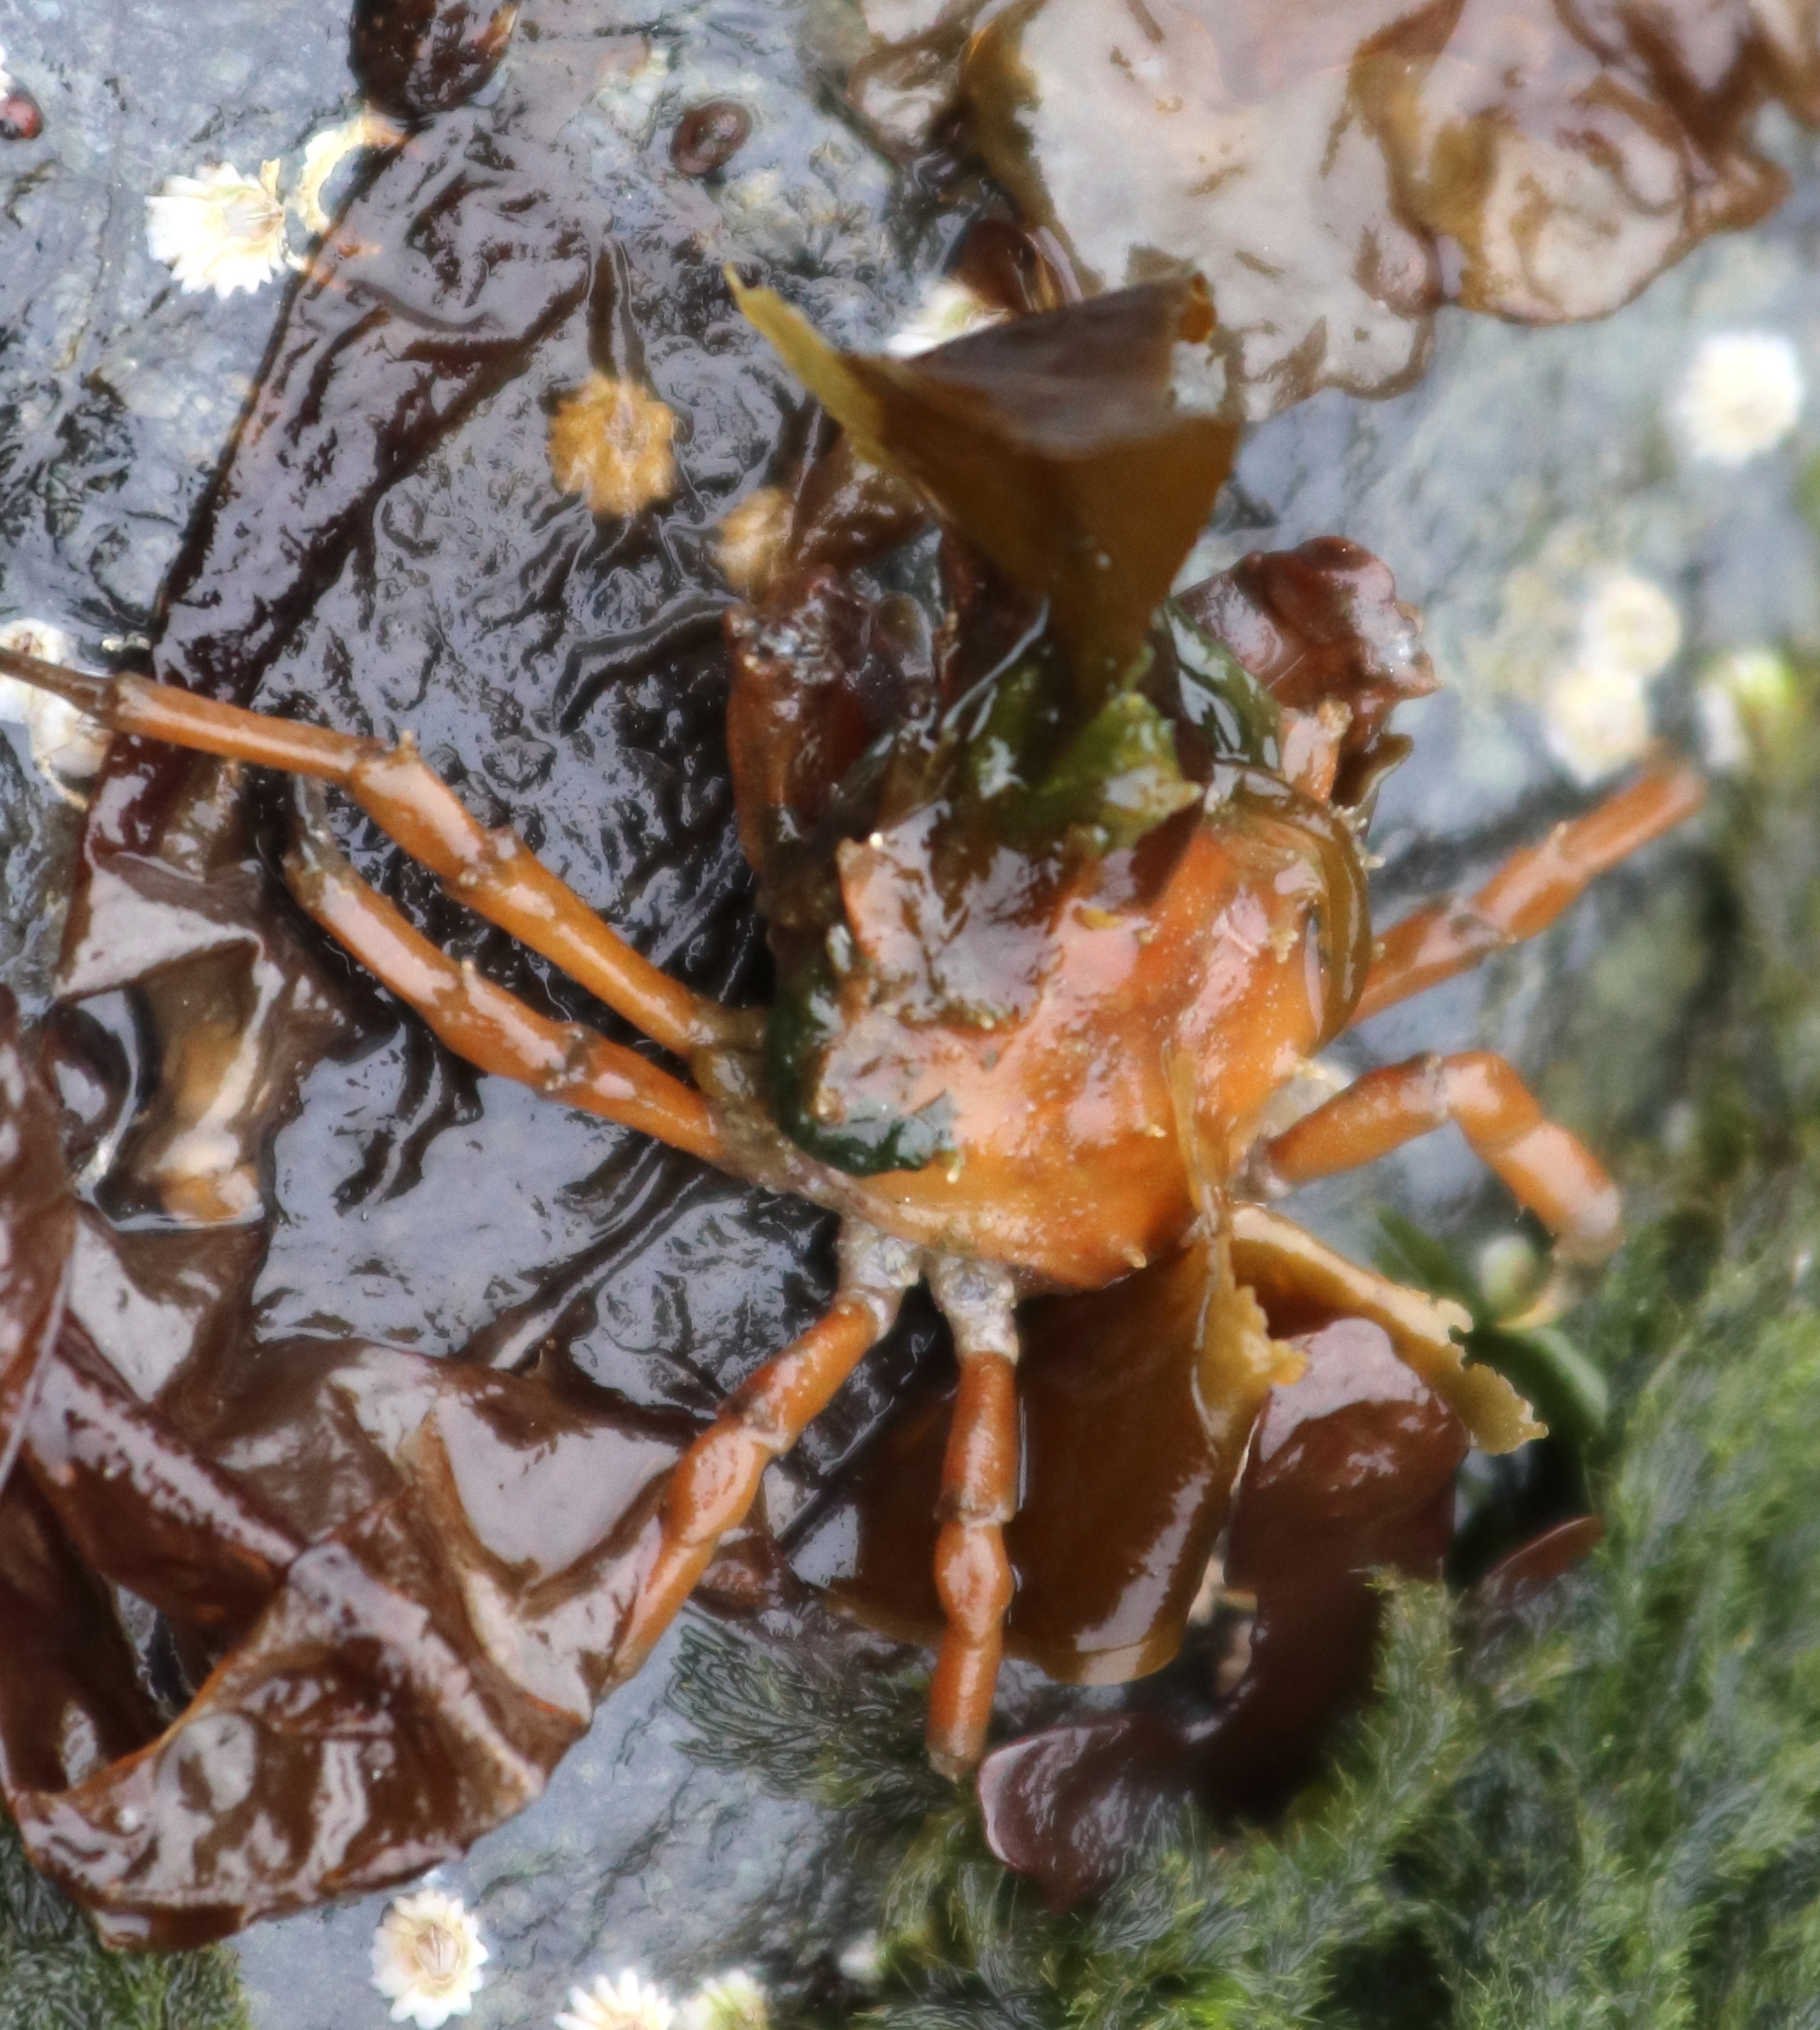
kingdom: Animalia
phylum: Arthropoda
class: Malacostraca
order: Decapoda
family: Epialtidae
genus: Pugettia
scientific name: Pugettia gracilis
